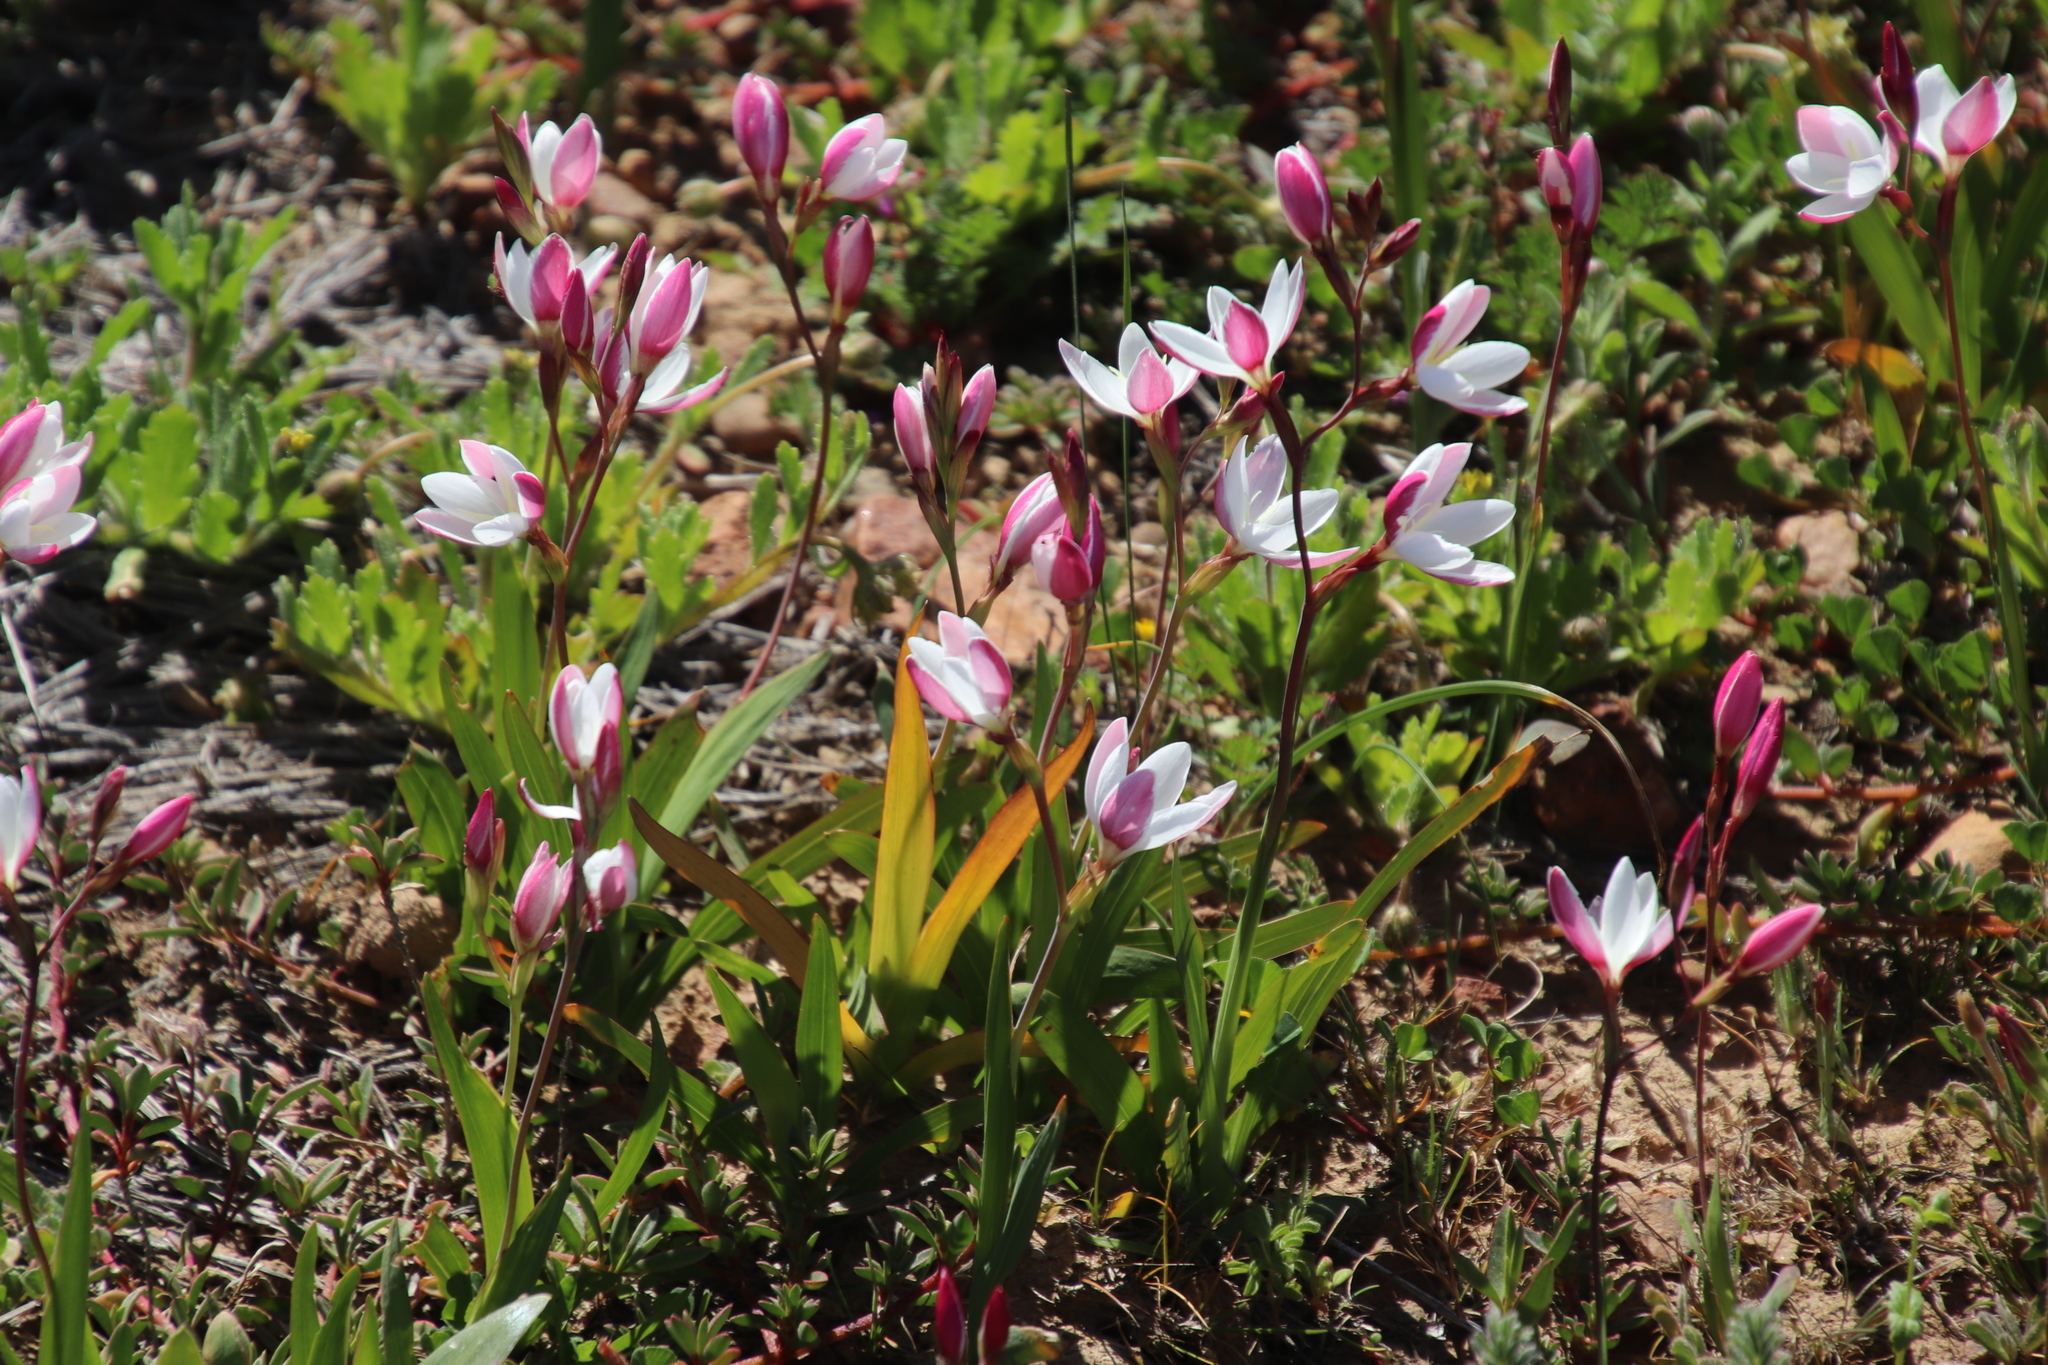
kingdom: Plantae
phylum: Tracheophyta
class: Liliopsida
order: Asparagales
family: Iridaceae
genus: Hesperantha
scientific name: Hesperantha cucullata
